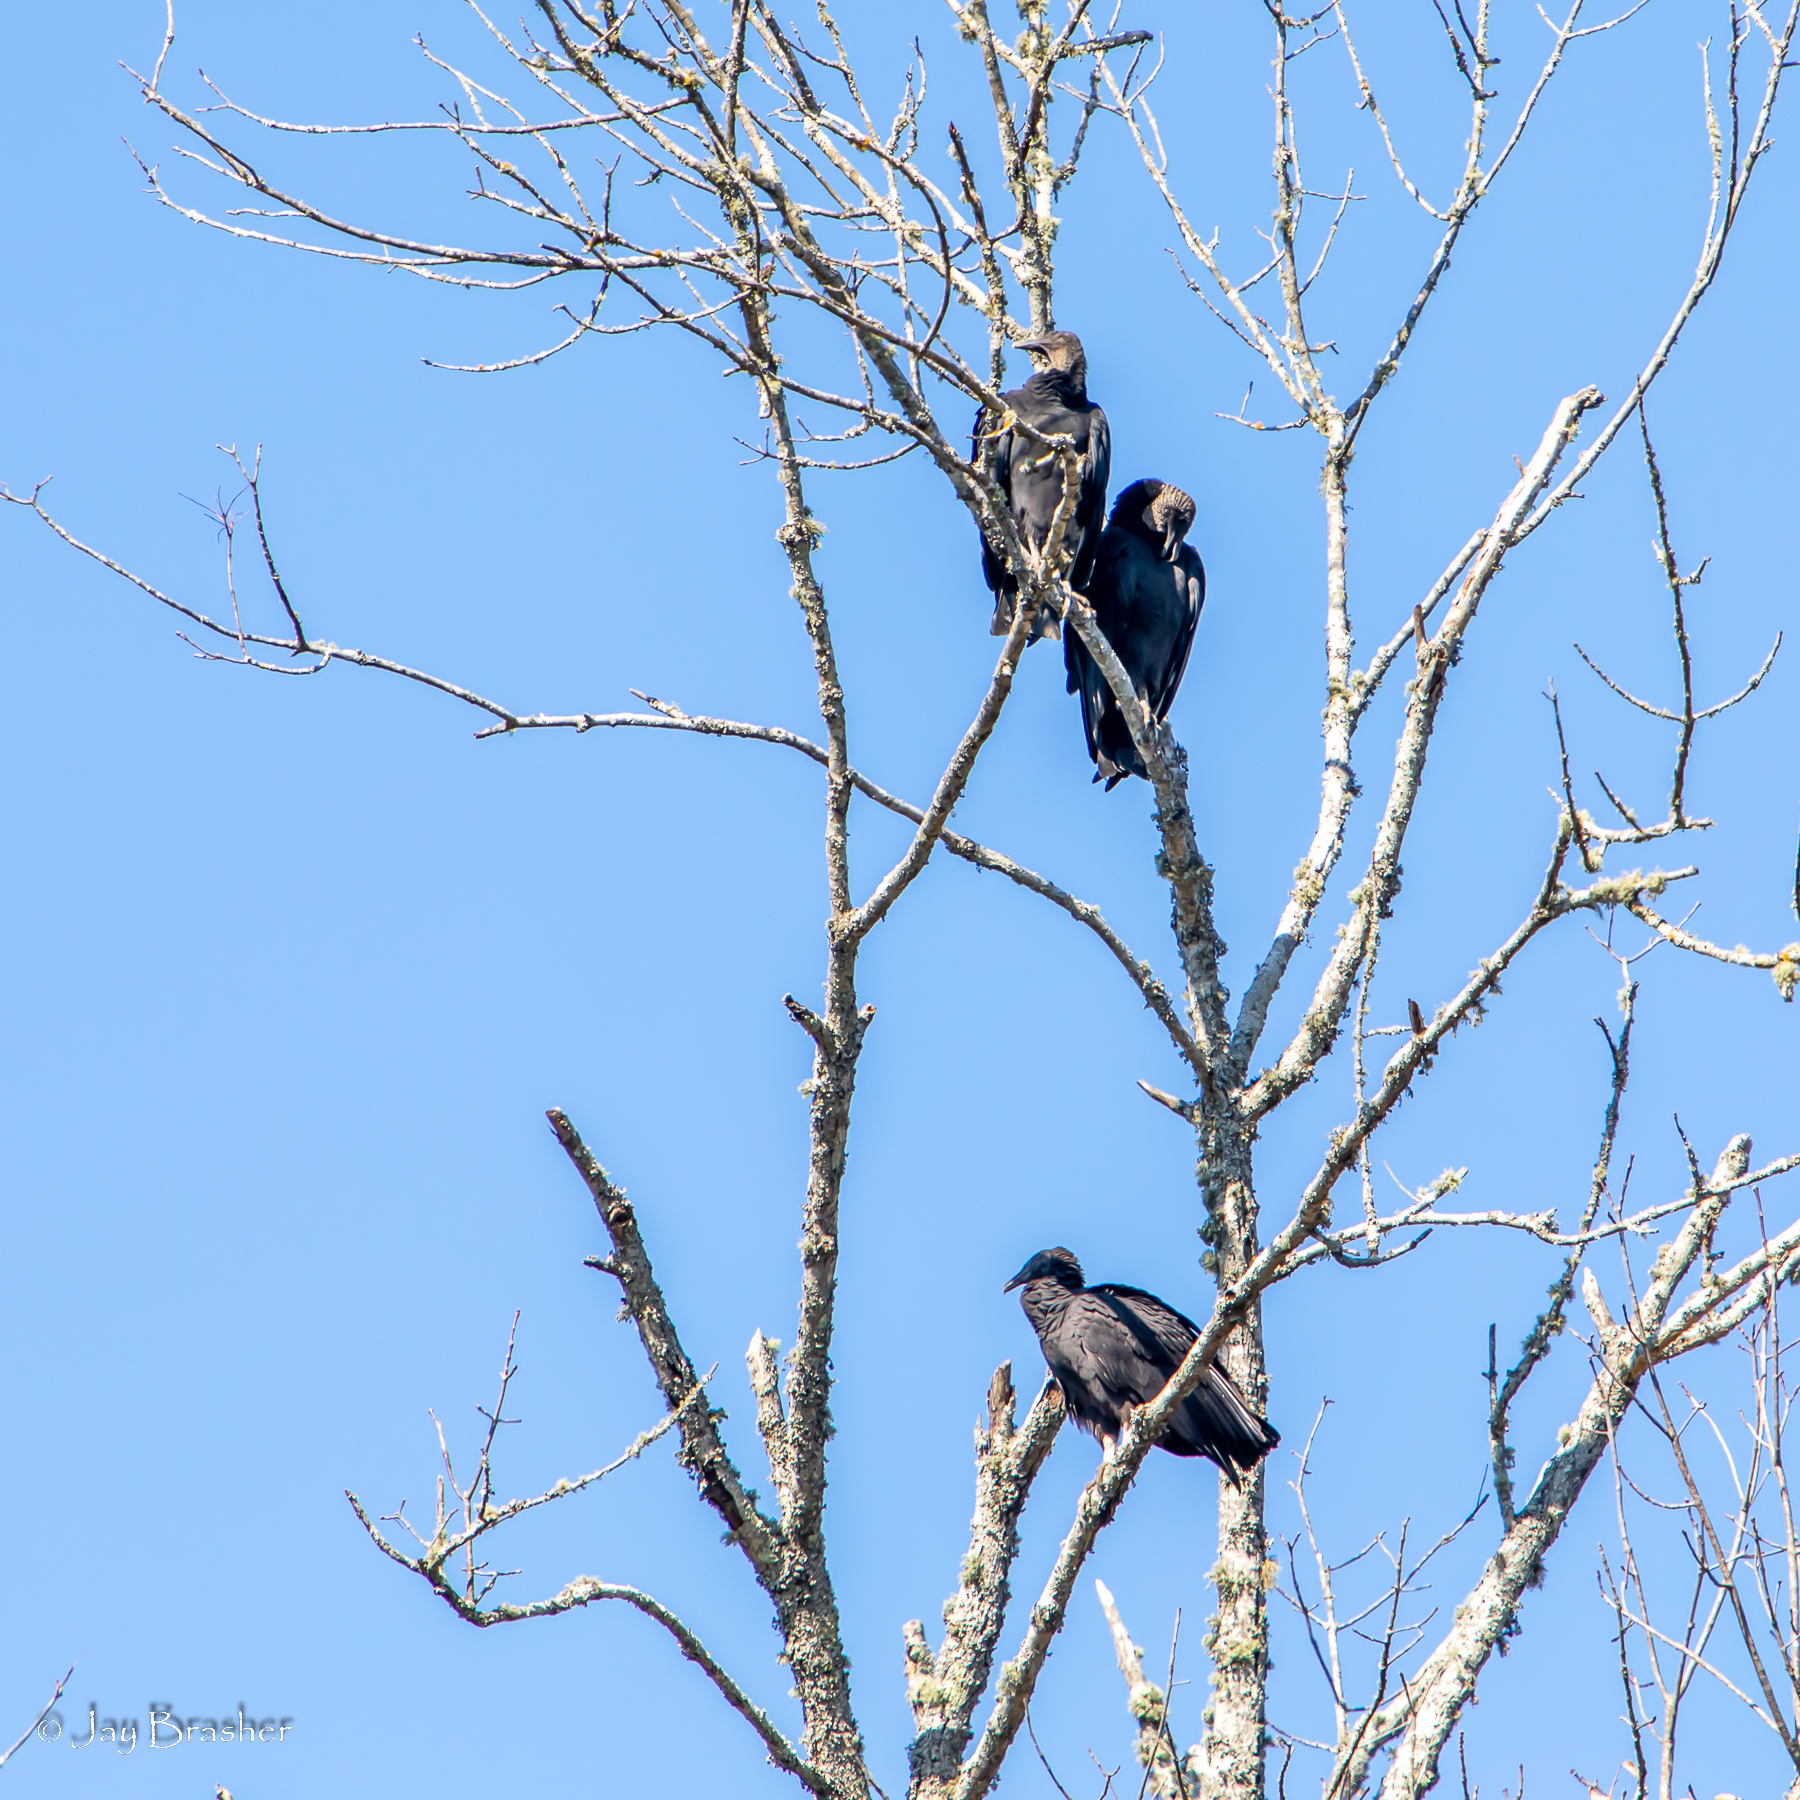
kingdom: Animalia
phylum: Chordata
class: Aves
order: Accipitriformes
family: Cathartidae
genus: Coragyps
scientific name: Coragyps atratus
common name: Black vulture
